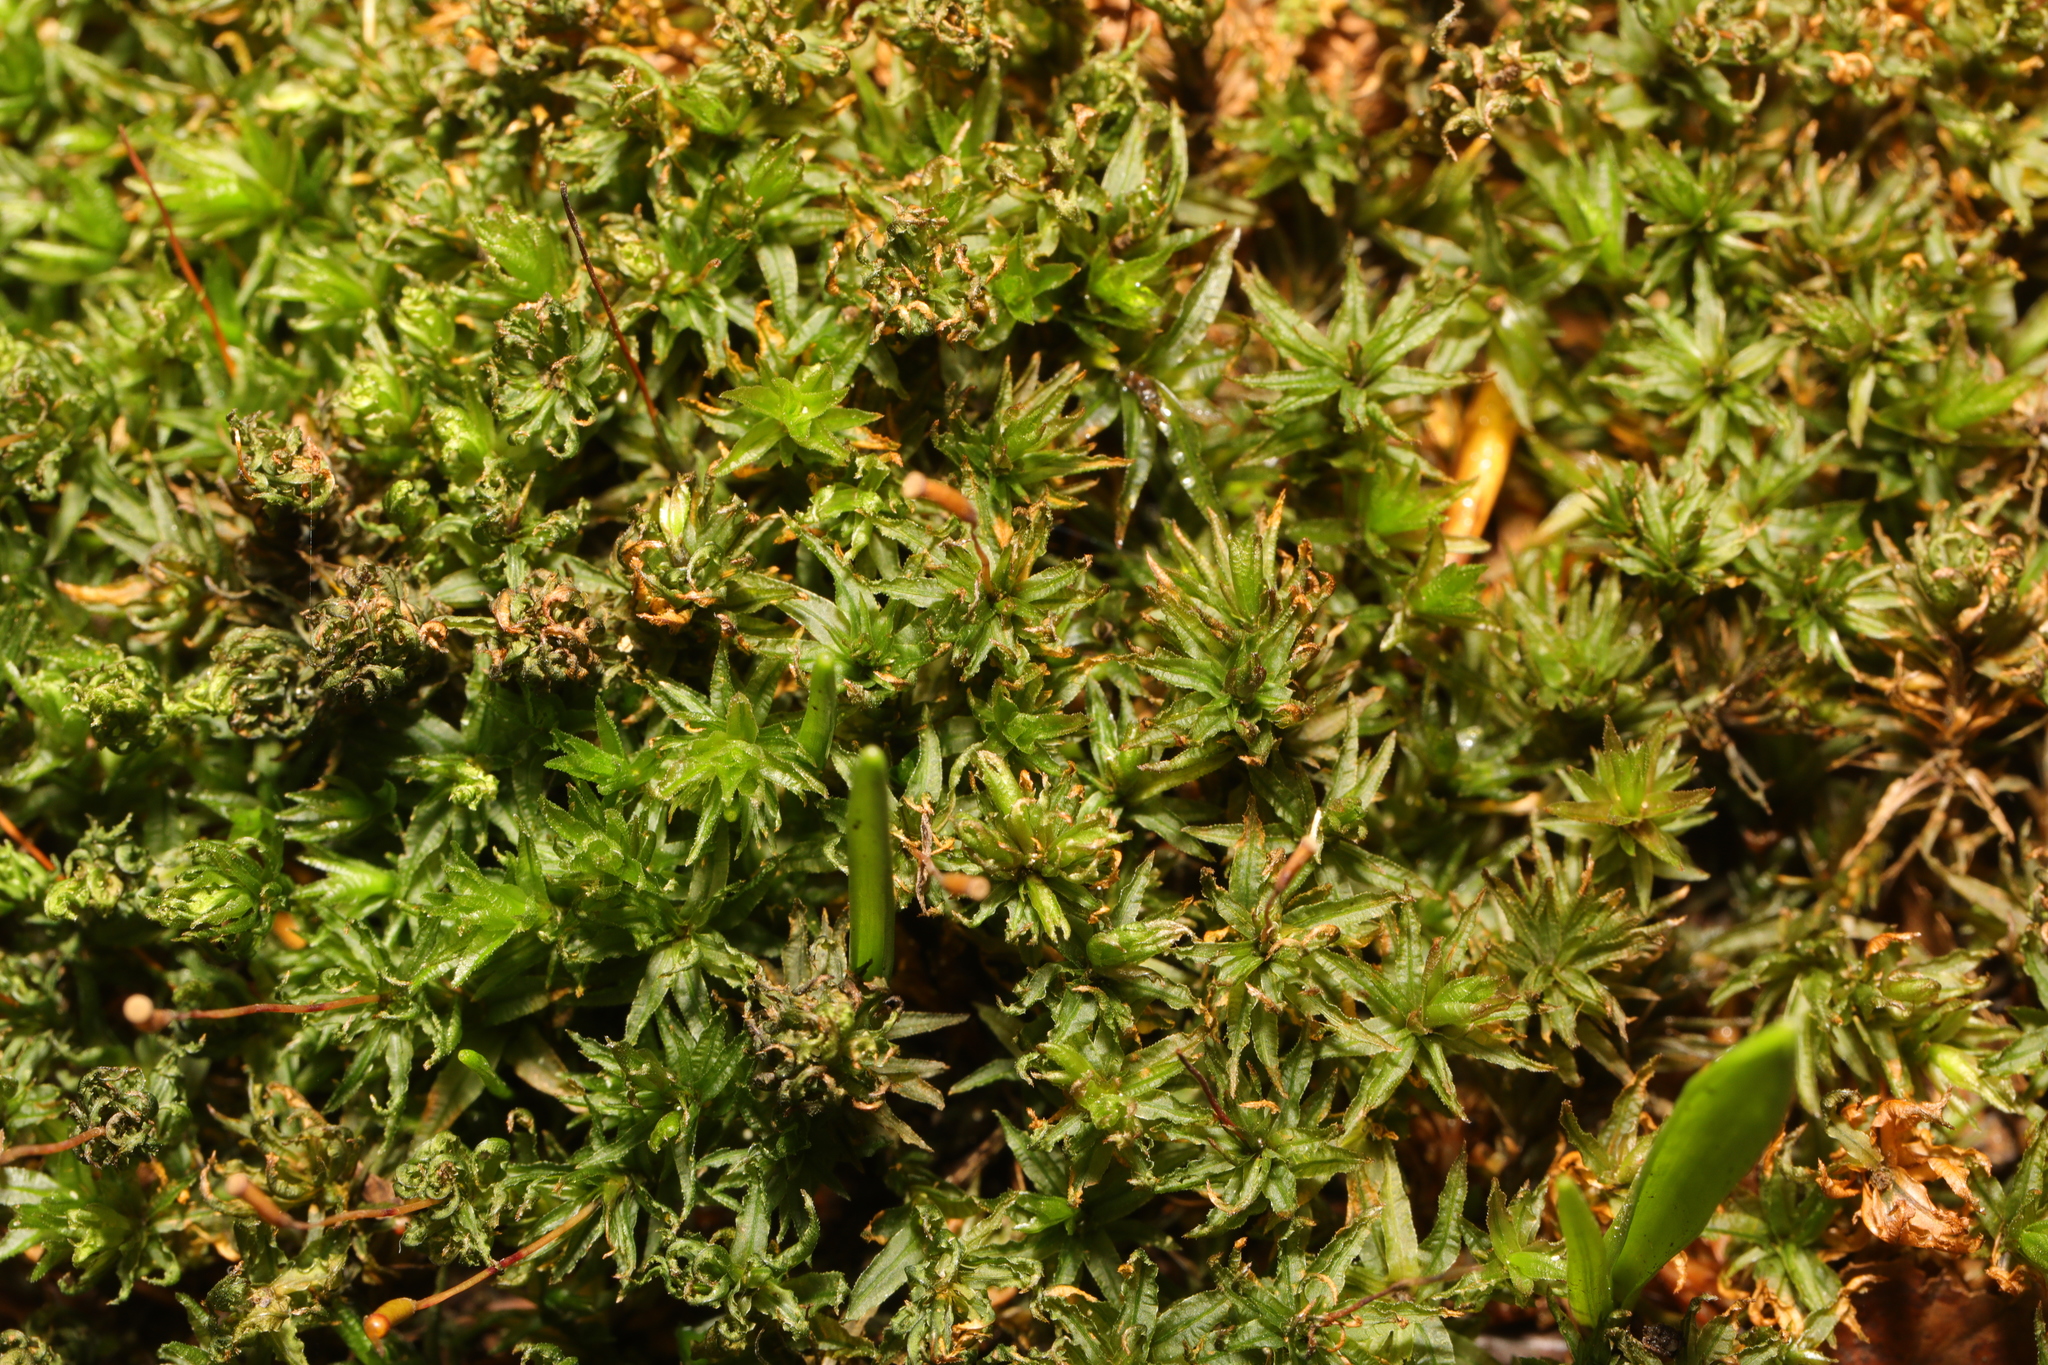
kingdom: Plantae
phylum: Bryophyta
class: Polytrichopsida
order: Polytrichales
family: Polytrichaceae
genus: Atrichum
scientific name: Atrichum undulatum
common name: Common smoothcap
